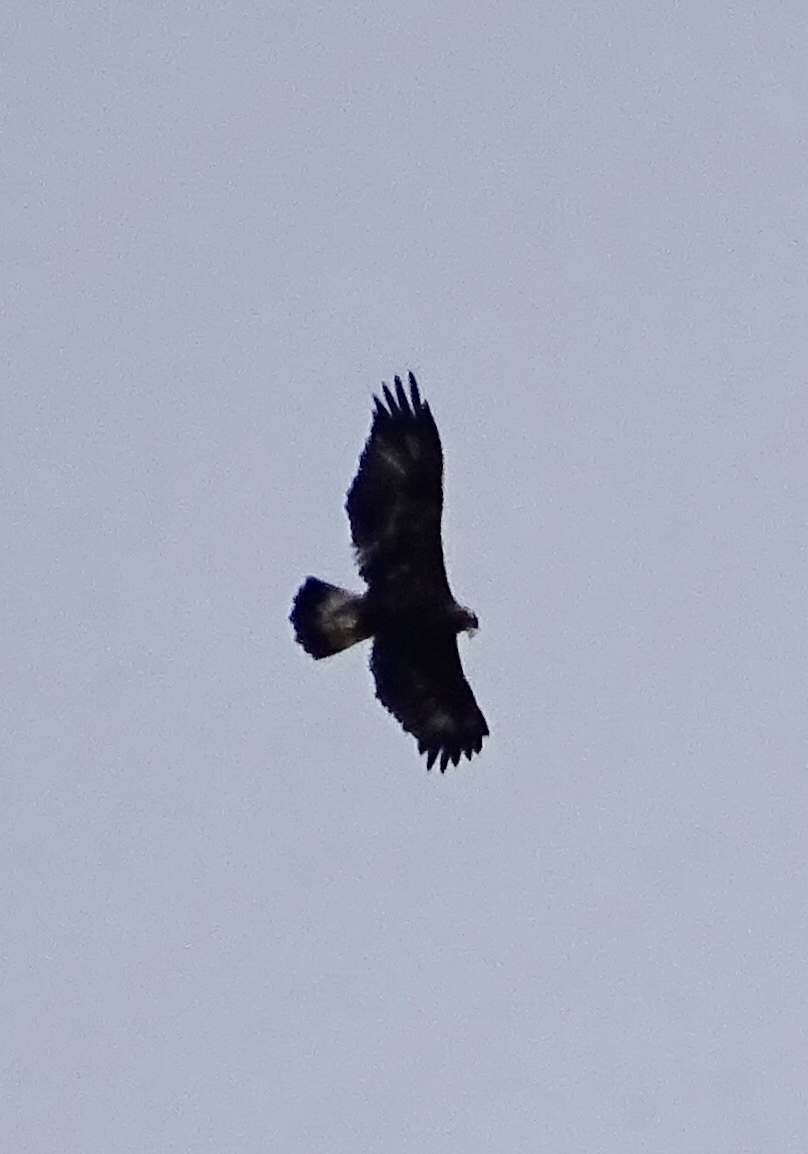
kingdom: Animalia
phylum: Chordata
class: Aves
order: Accipitriformes
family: Accipitridae
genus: Aquila
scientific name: Aquila chrysaetos
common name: Golden eagle
